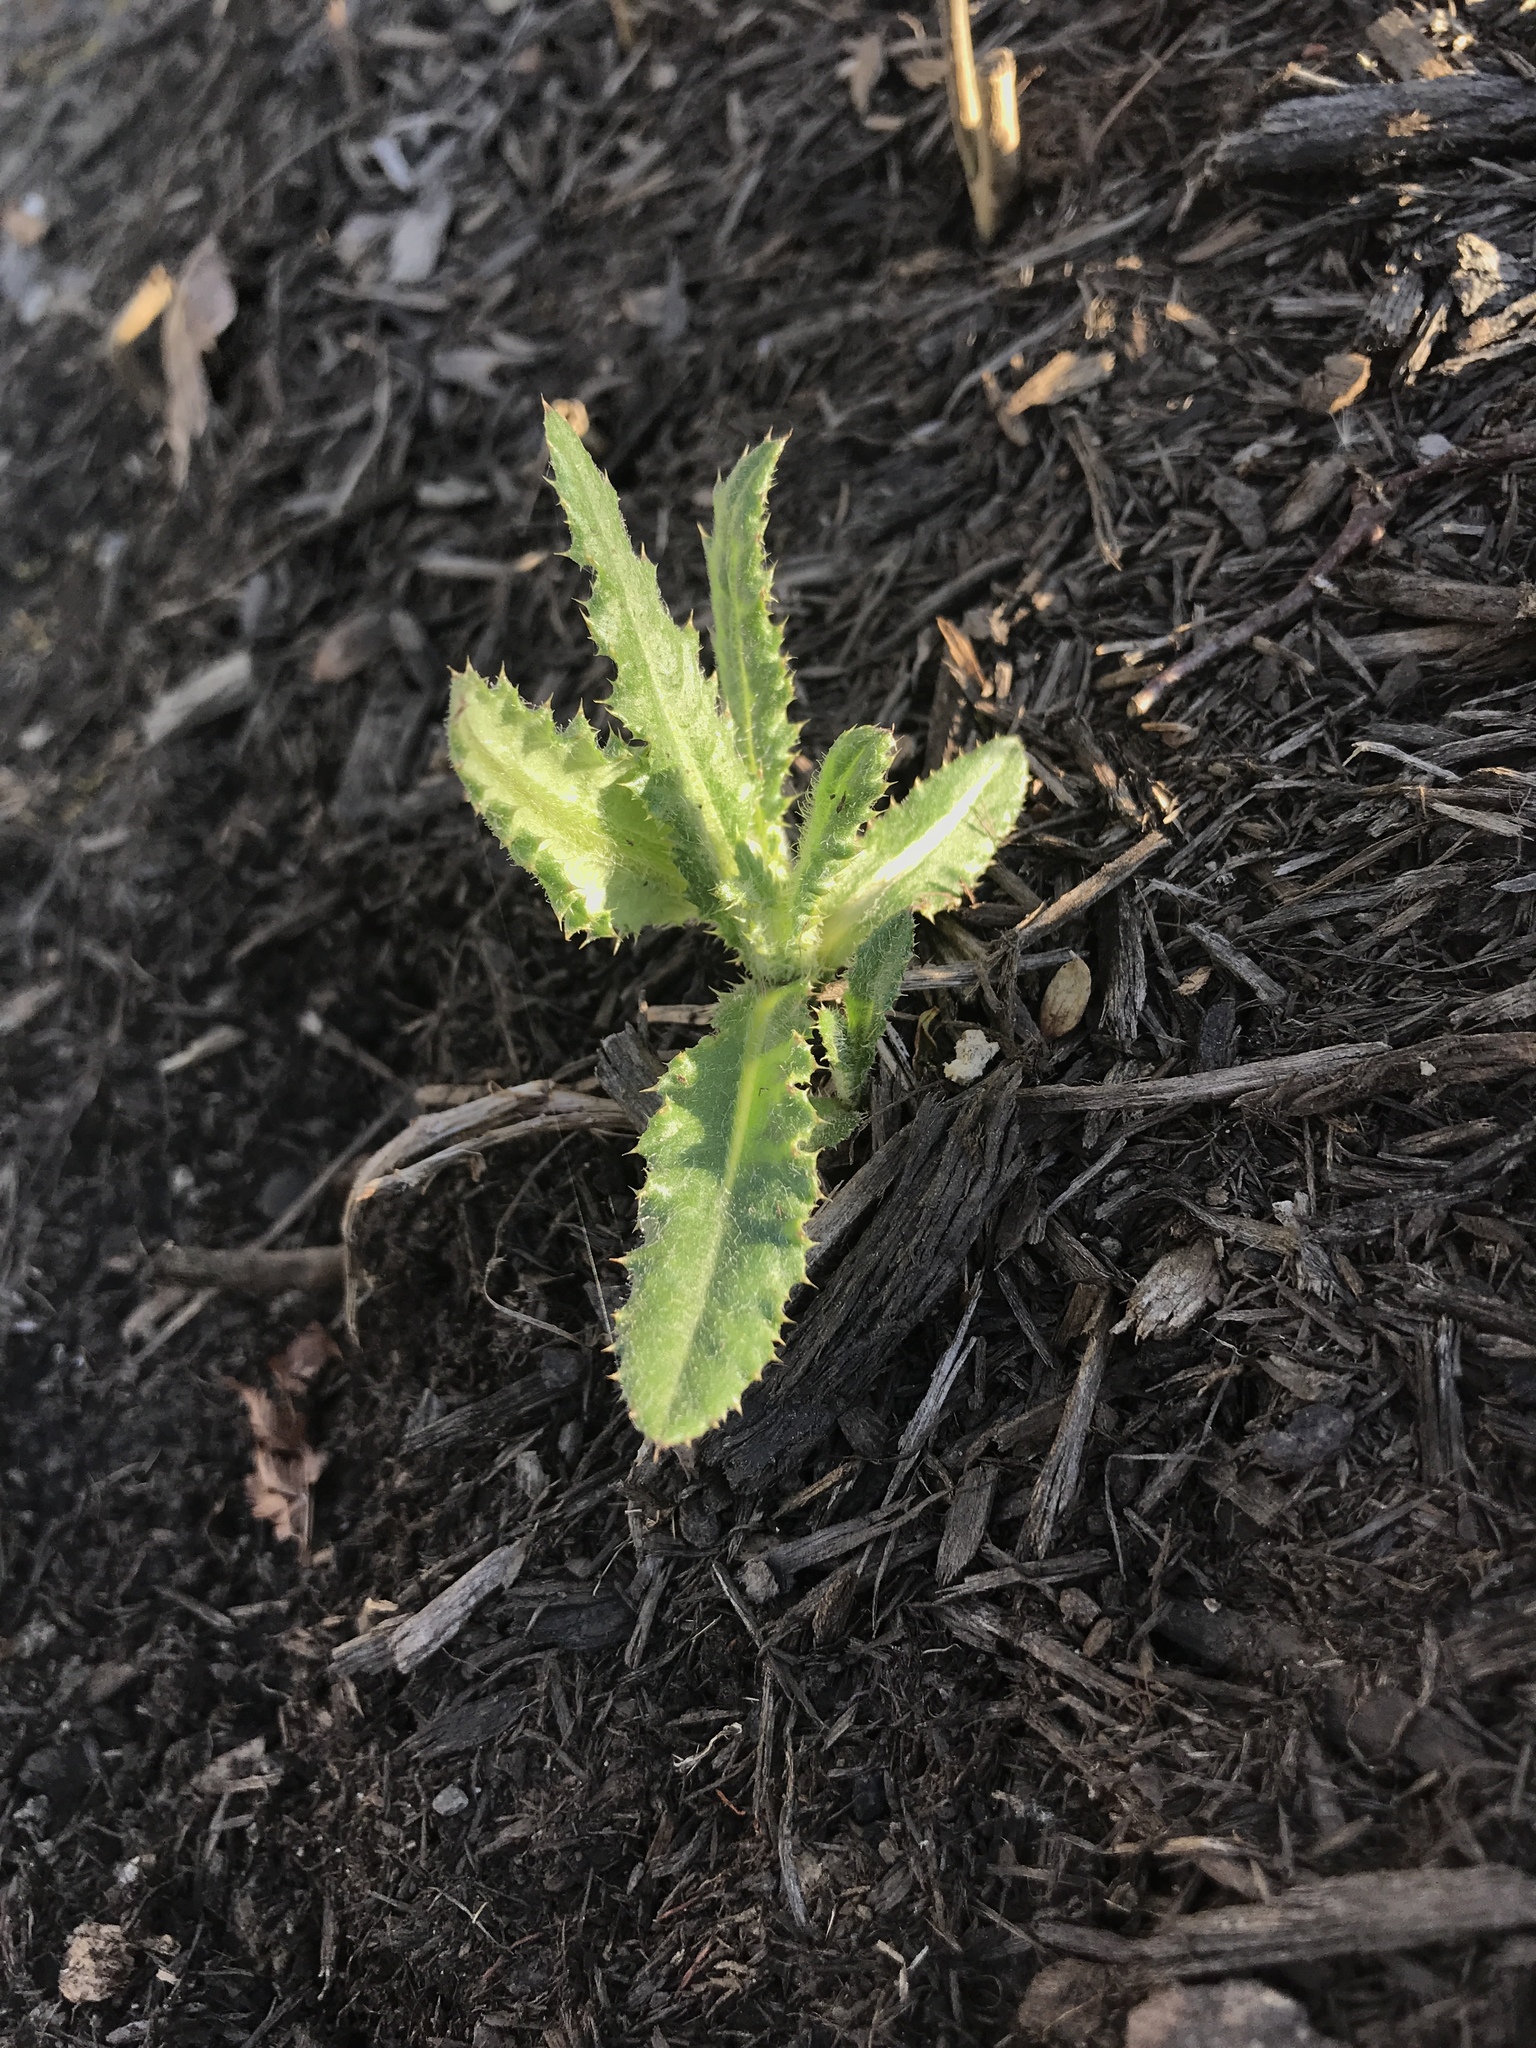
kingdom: Plantae
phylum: Tracheophyta
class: Magnoliopsida
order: Asterales
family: Asteraceae
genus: Cirsium
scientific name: Cirsium arvense
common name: Creeping thistle
